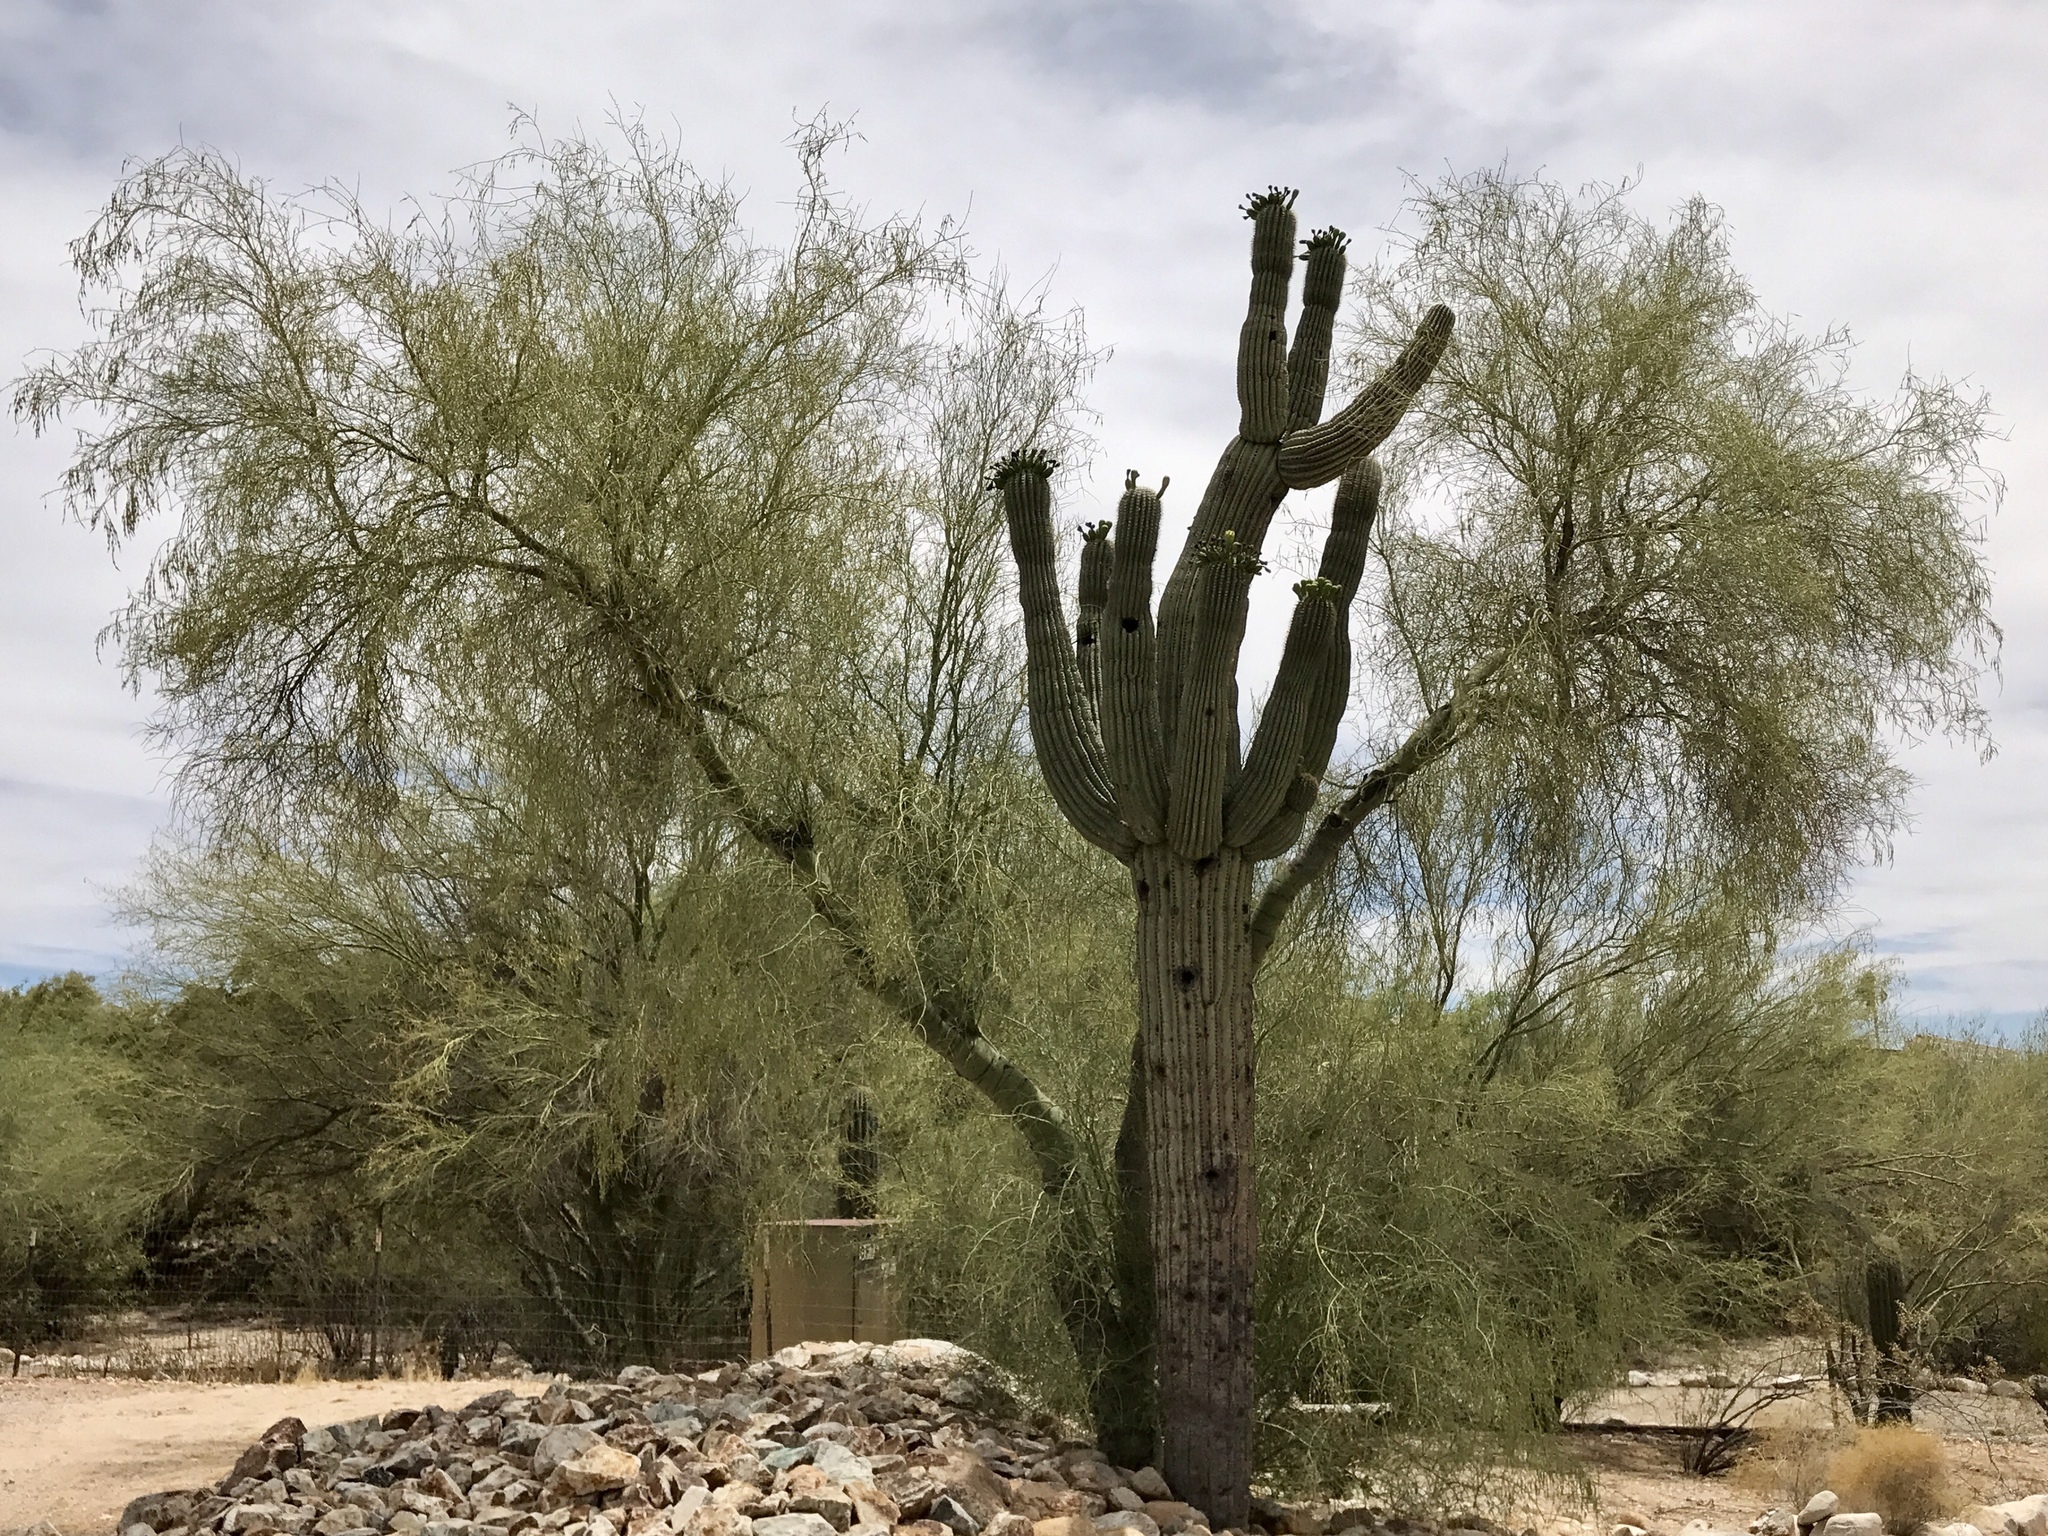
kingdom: Plantae
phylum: Tracheophyta
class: Magnoliopsida
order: Fabales
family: Fabaceae
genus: Parkinsonia
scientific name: Parkinsonia microphylla
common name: Yellow paloverde
